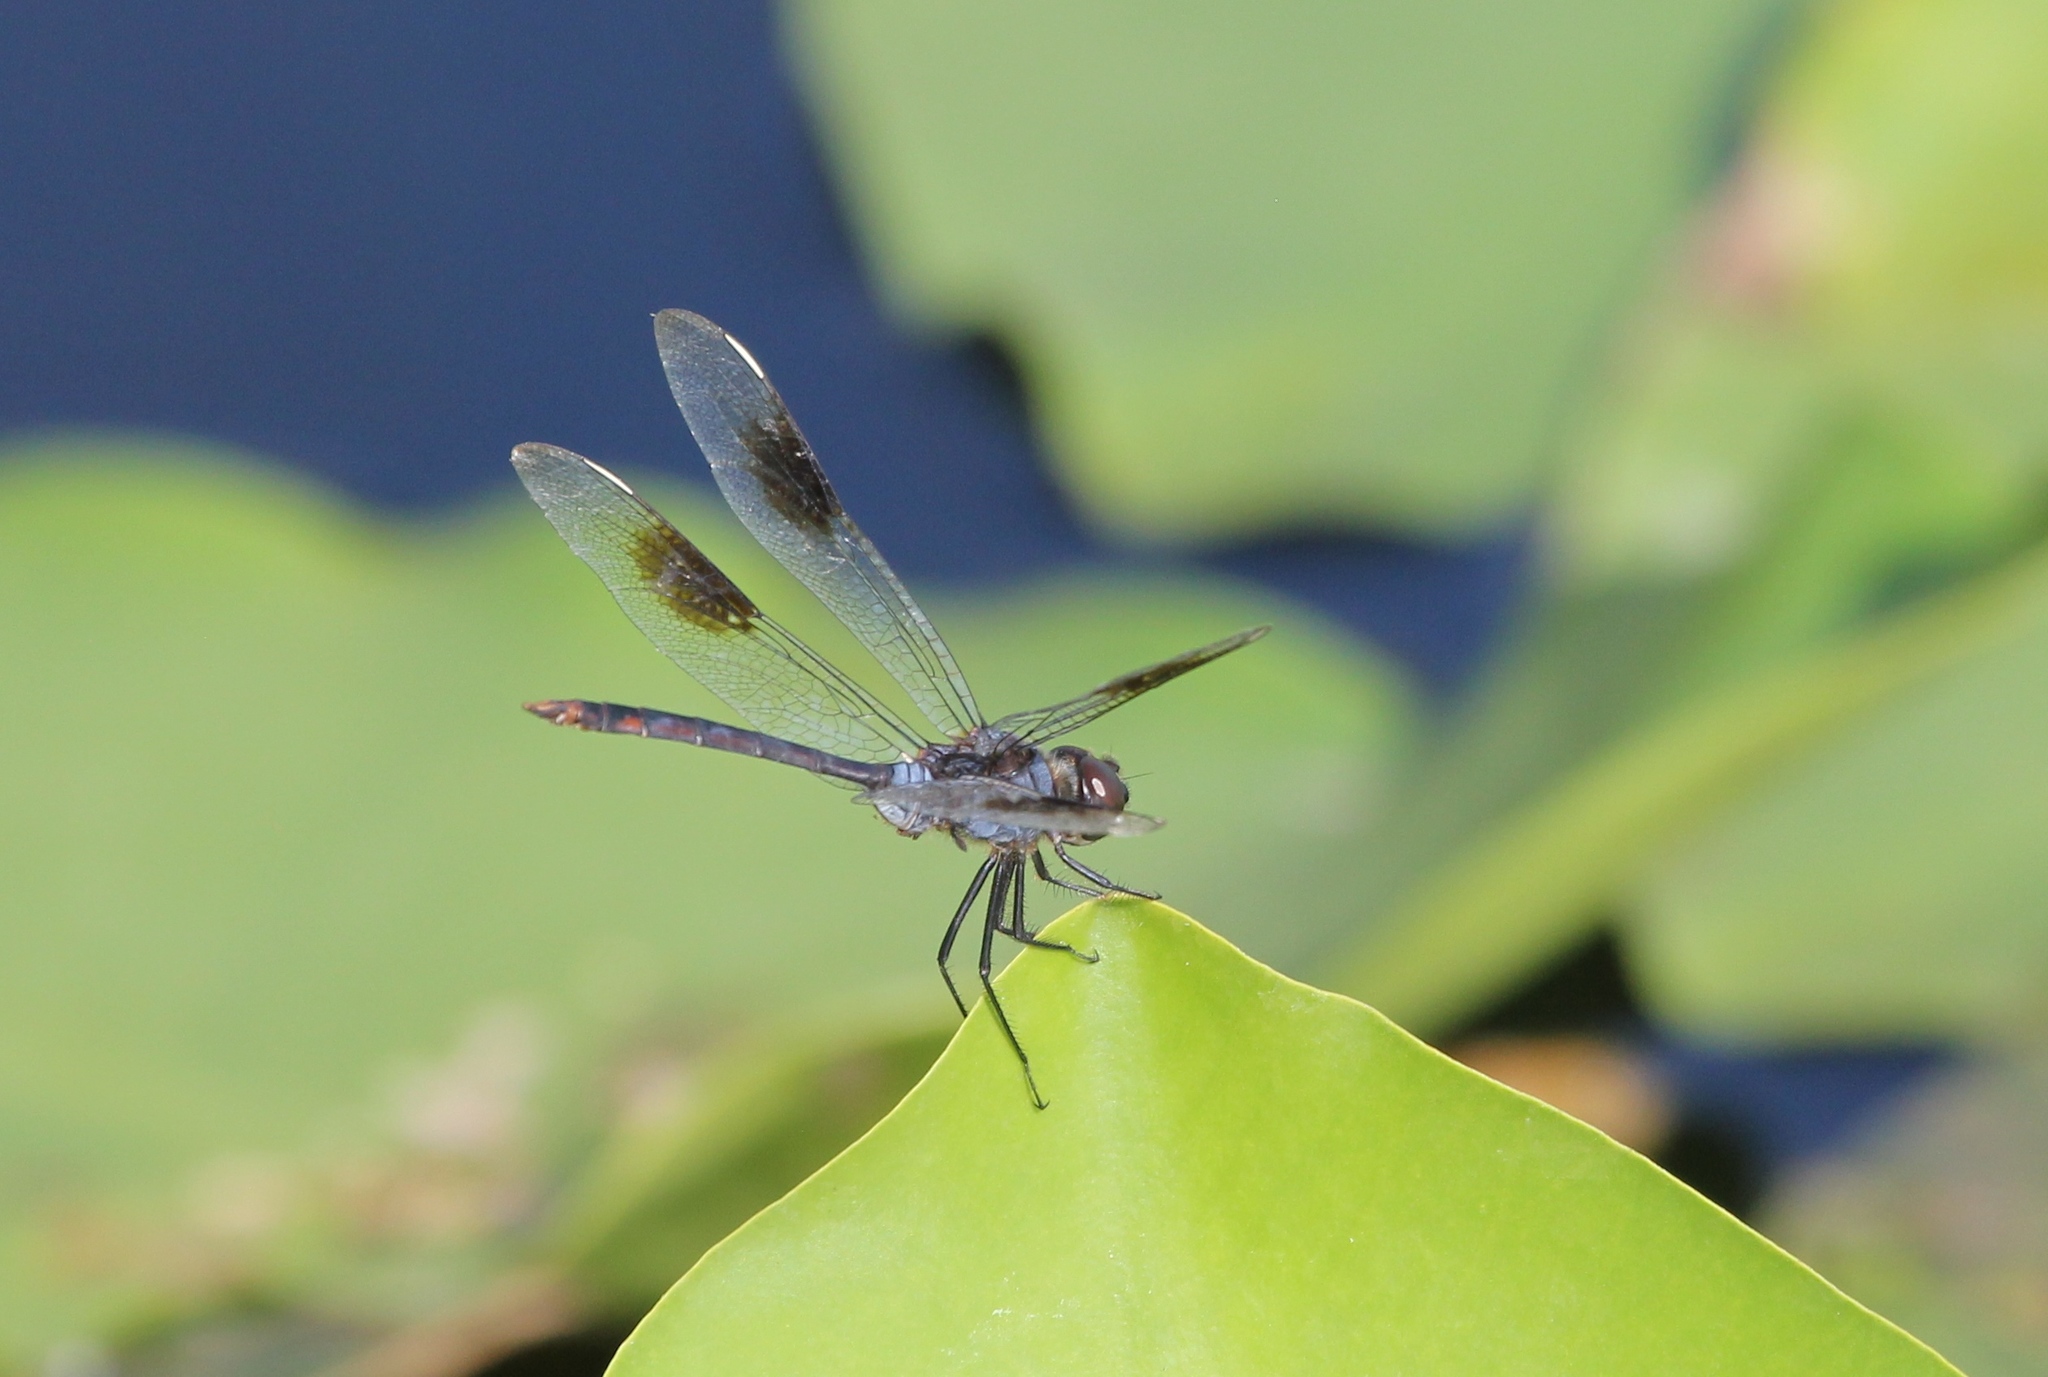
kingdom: Animalia
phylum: Arthropoda
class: Insecta
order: Odonata
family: Libellulidae
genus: Brachymesia
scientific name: Brachymesia gravida
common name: Four-spotted pennant
